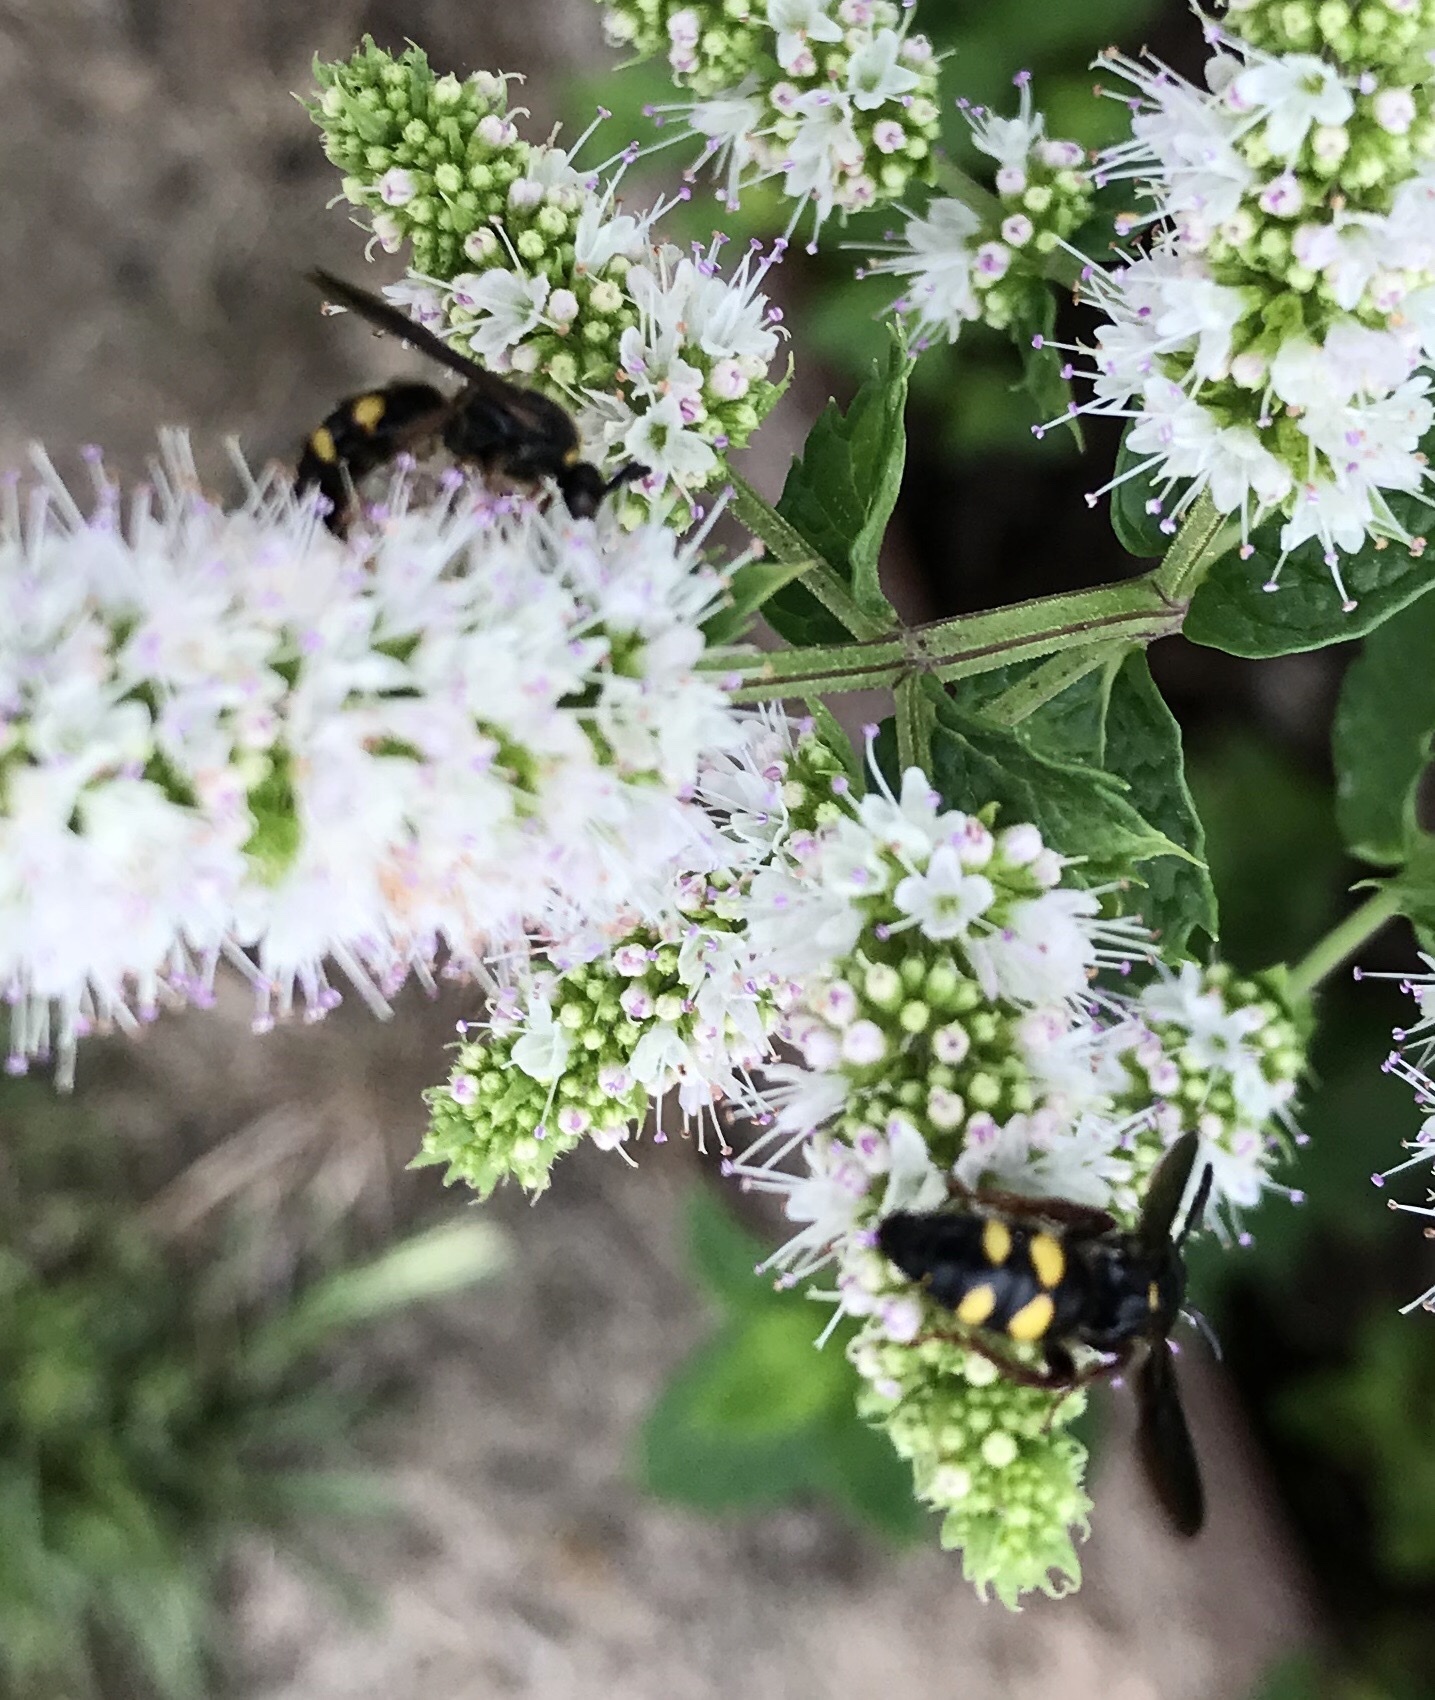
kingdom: Animalia
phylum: Arthropoda
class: Insecta
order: Hymenoptera
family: Scoliidae
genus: Scolia
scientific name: Scolia nobilitata
